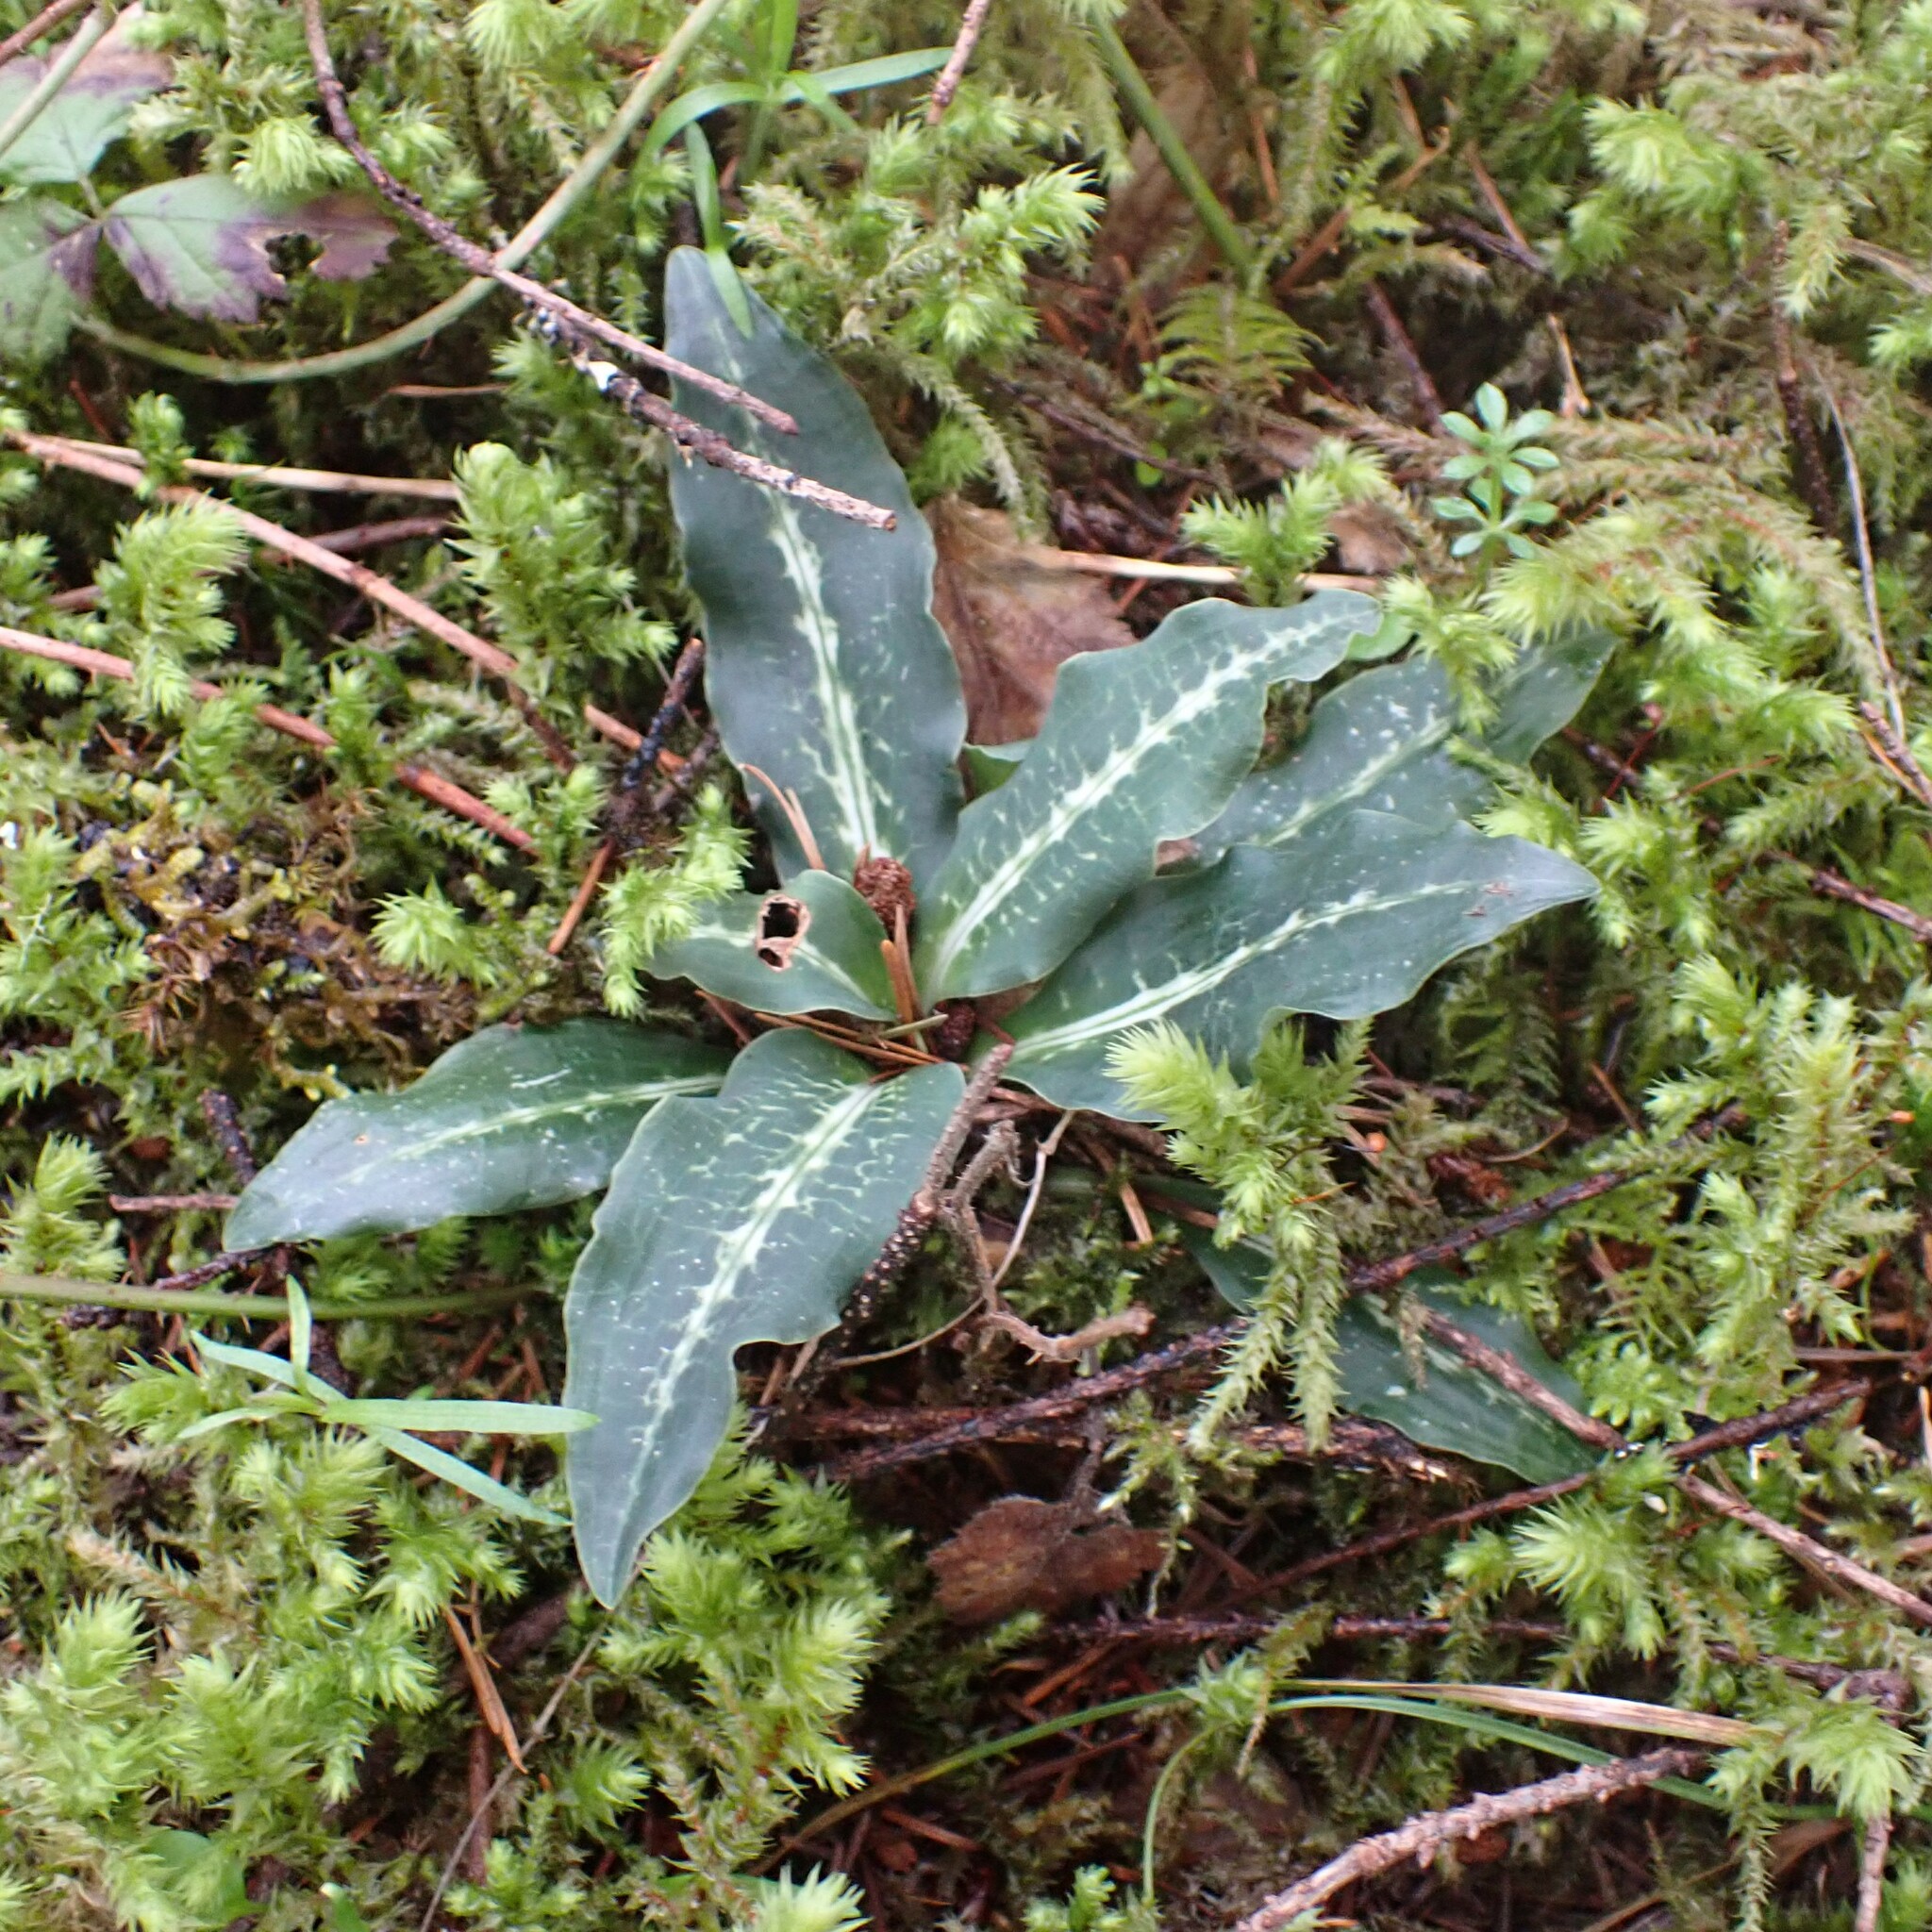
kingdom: Plantae
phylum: Tracheophyta
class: Liliopsida
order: Asparagales
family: Orchidaceae
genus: Goodyera
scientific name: Goodyera oblongifolia
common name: Giant rattlesnake-plantain
